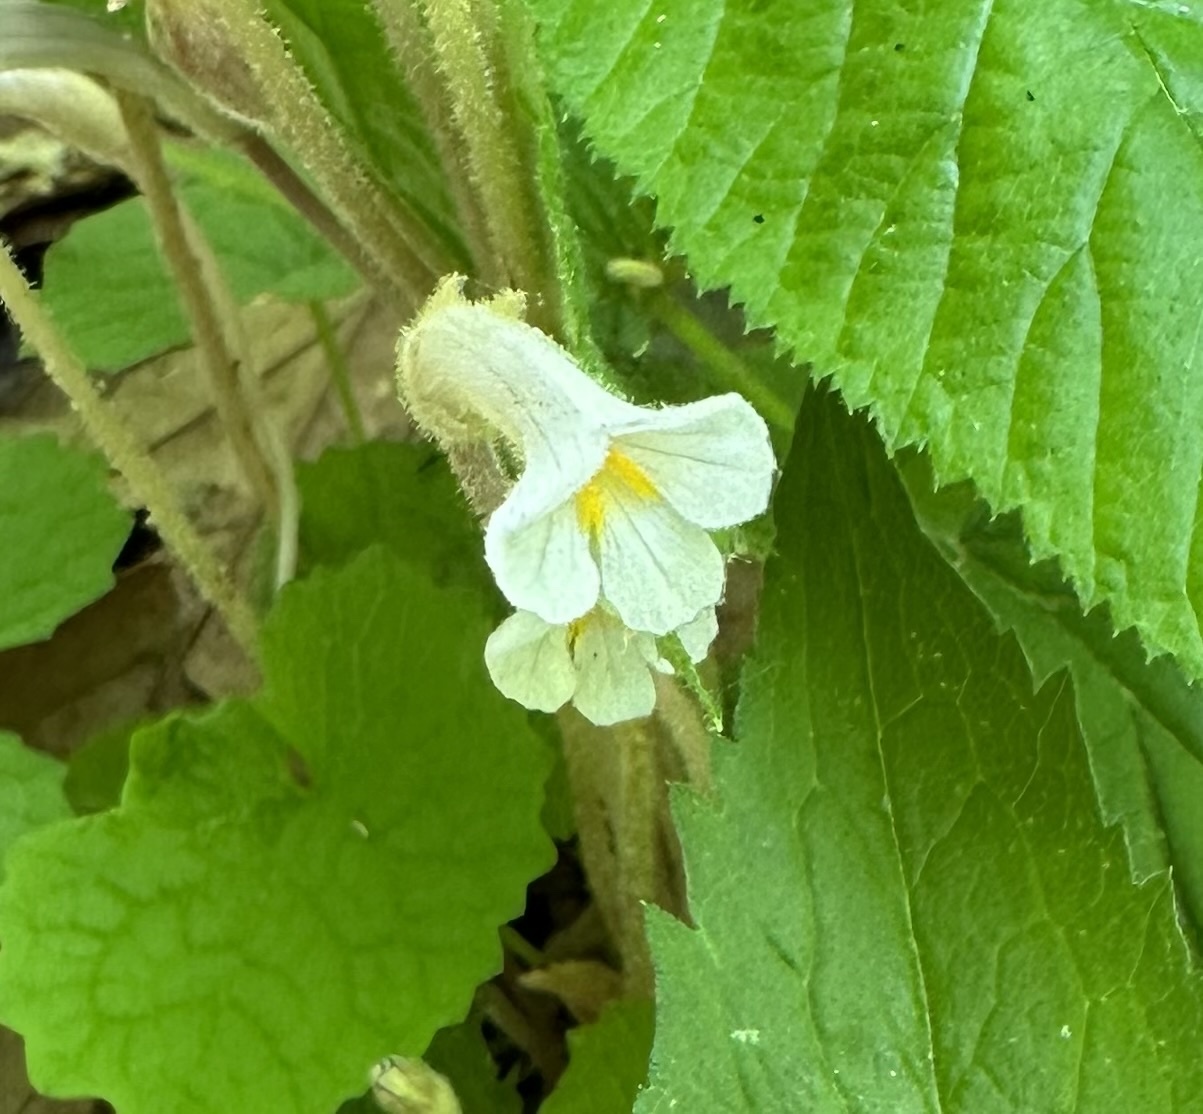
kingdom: Plantae
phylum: Tracheophyta
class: Magnoliopsida
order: Lamiales
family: Orobanchaceae
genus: Aphyllon
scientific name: Aphyllon uniflorum
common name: One-flowered broomrape
